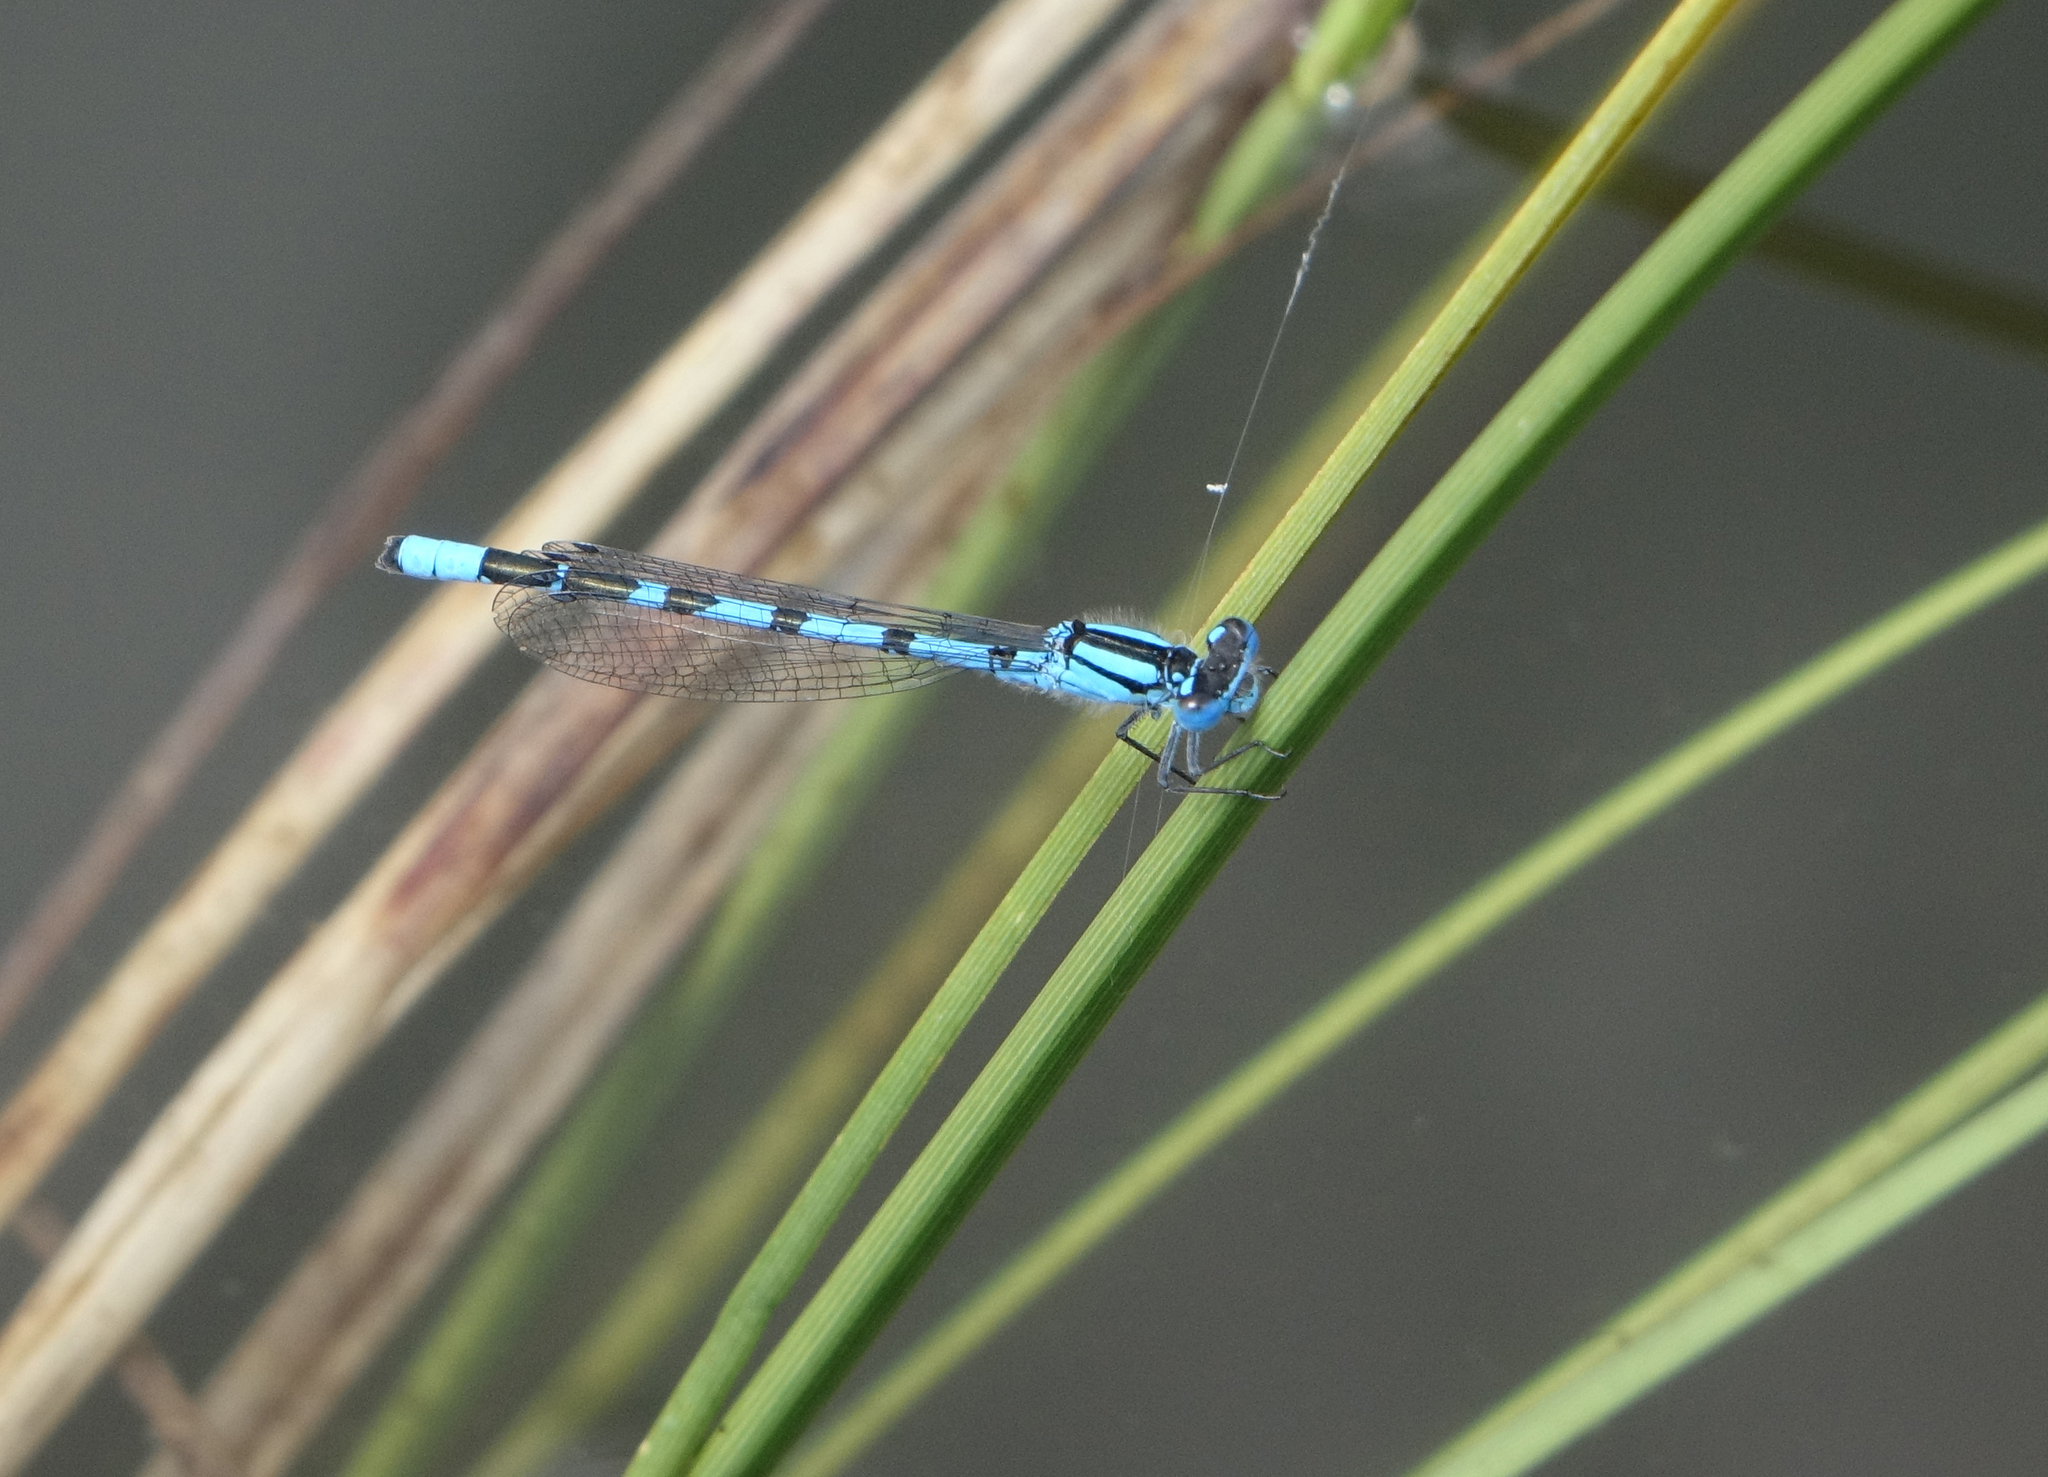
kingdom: Animalia
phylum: Arthropoda
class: Insecta
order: Odonata
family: Coenagrionidae
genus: Enallagma
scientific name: Enallagma cyathigerum
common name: Common blue damselfly
